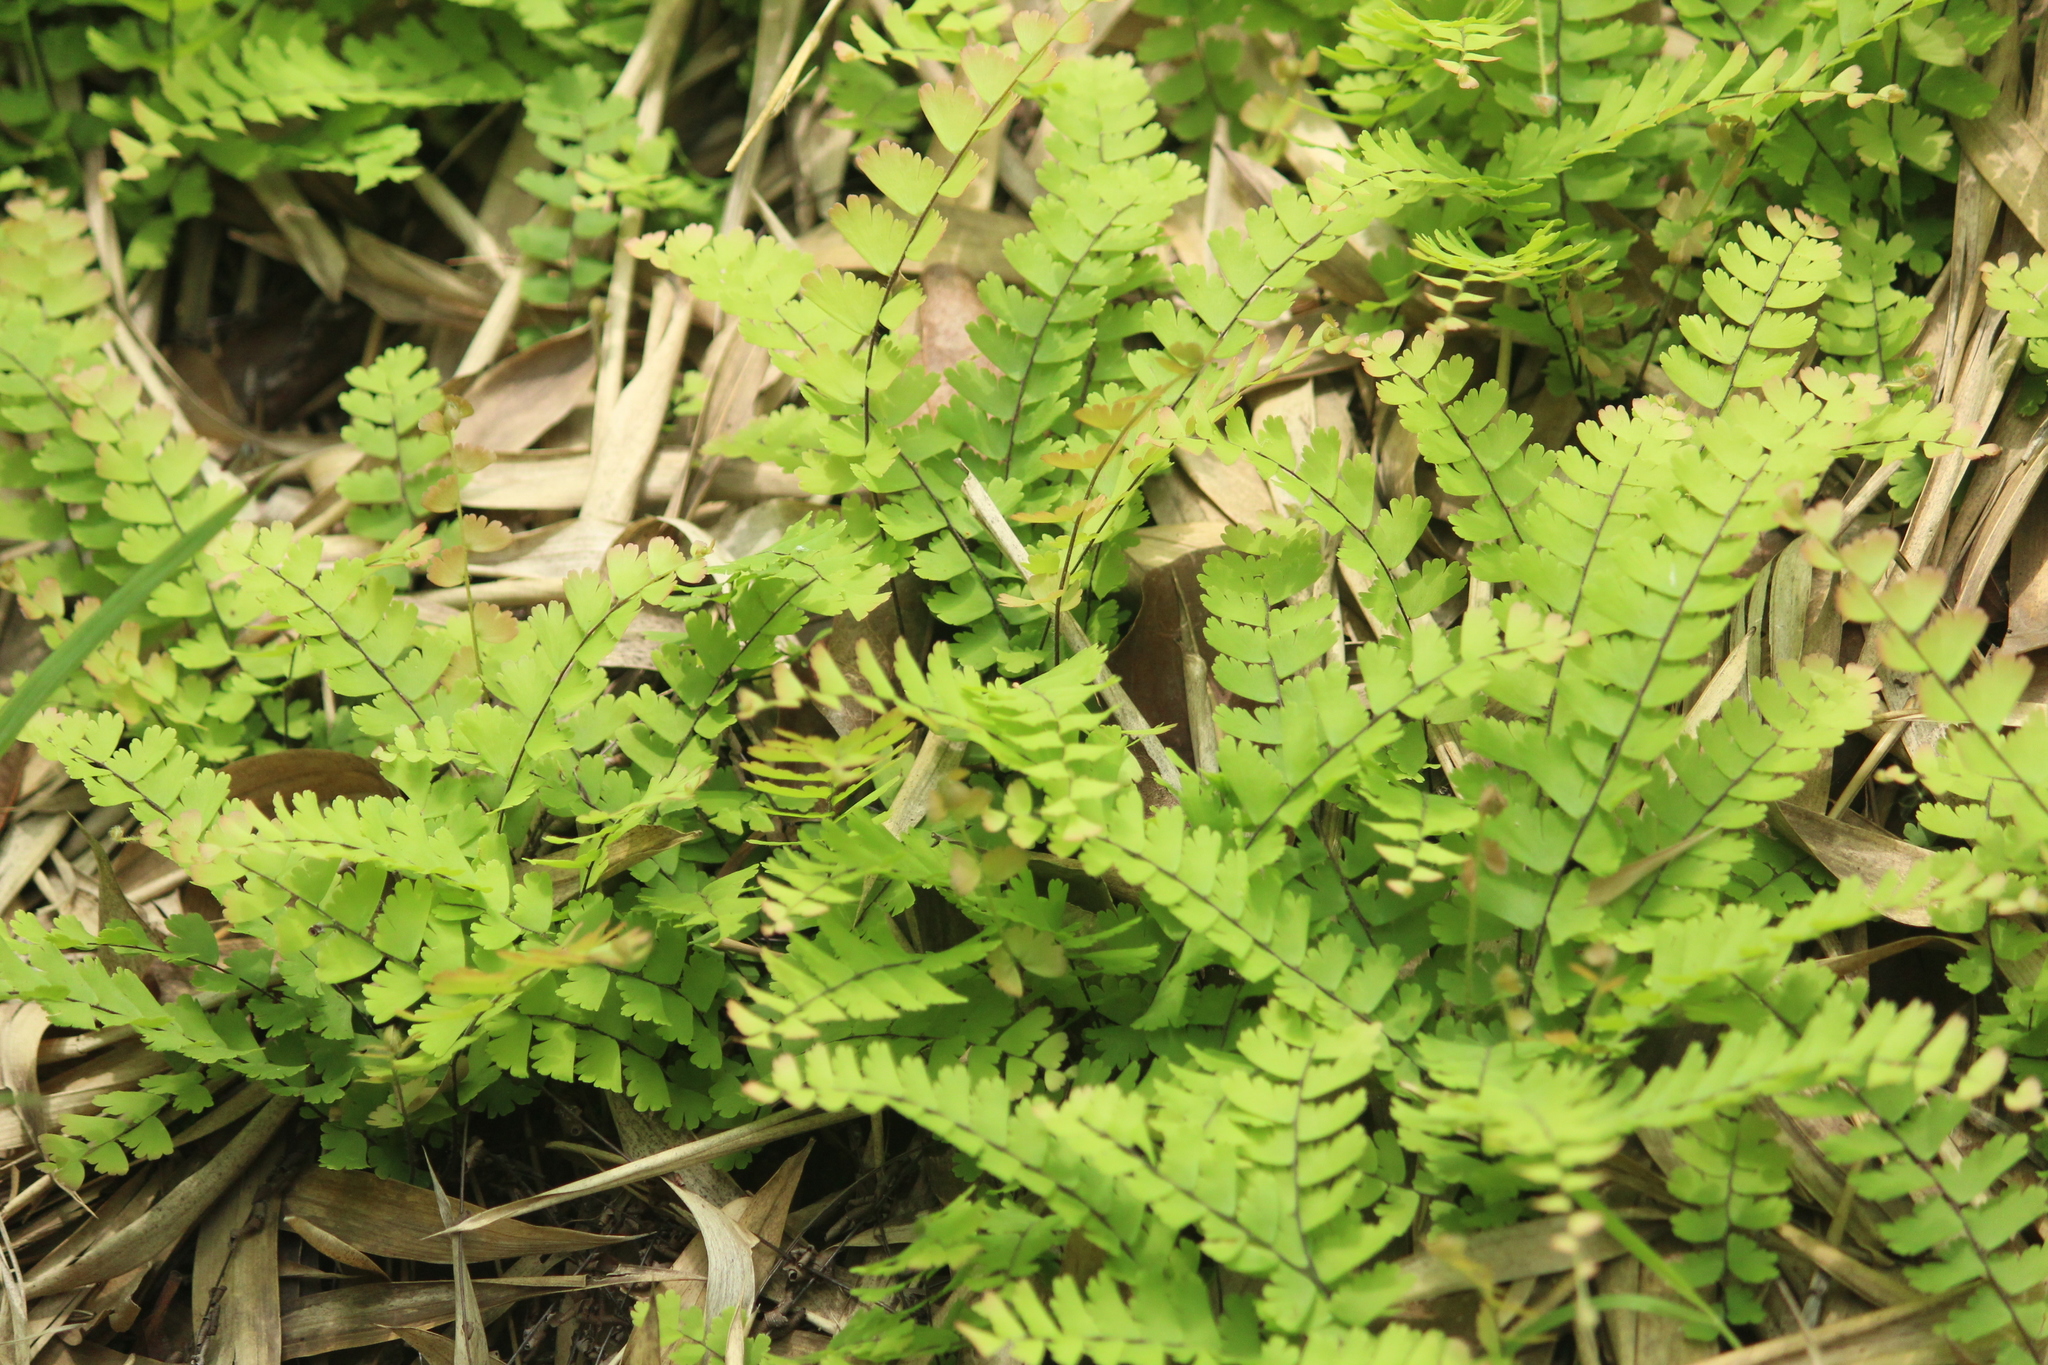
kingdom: Plantae
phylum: Tracheophyta
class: Polypodiopsida
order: Polypodiales
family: Pteridaceae
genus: Adiantum
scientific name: Adiantum incisum
